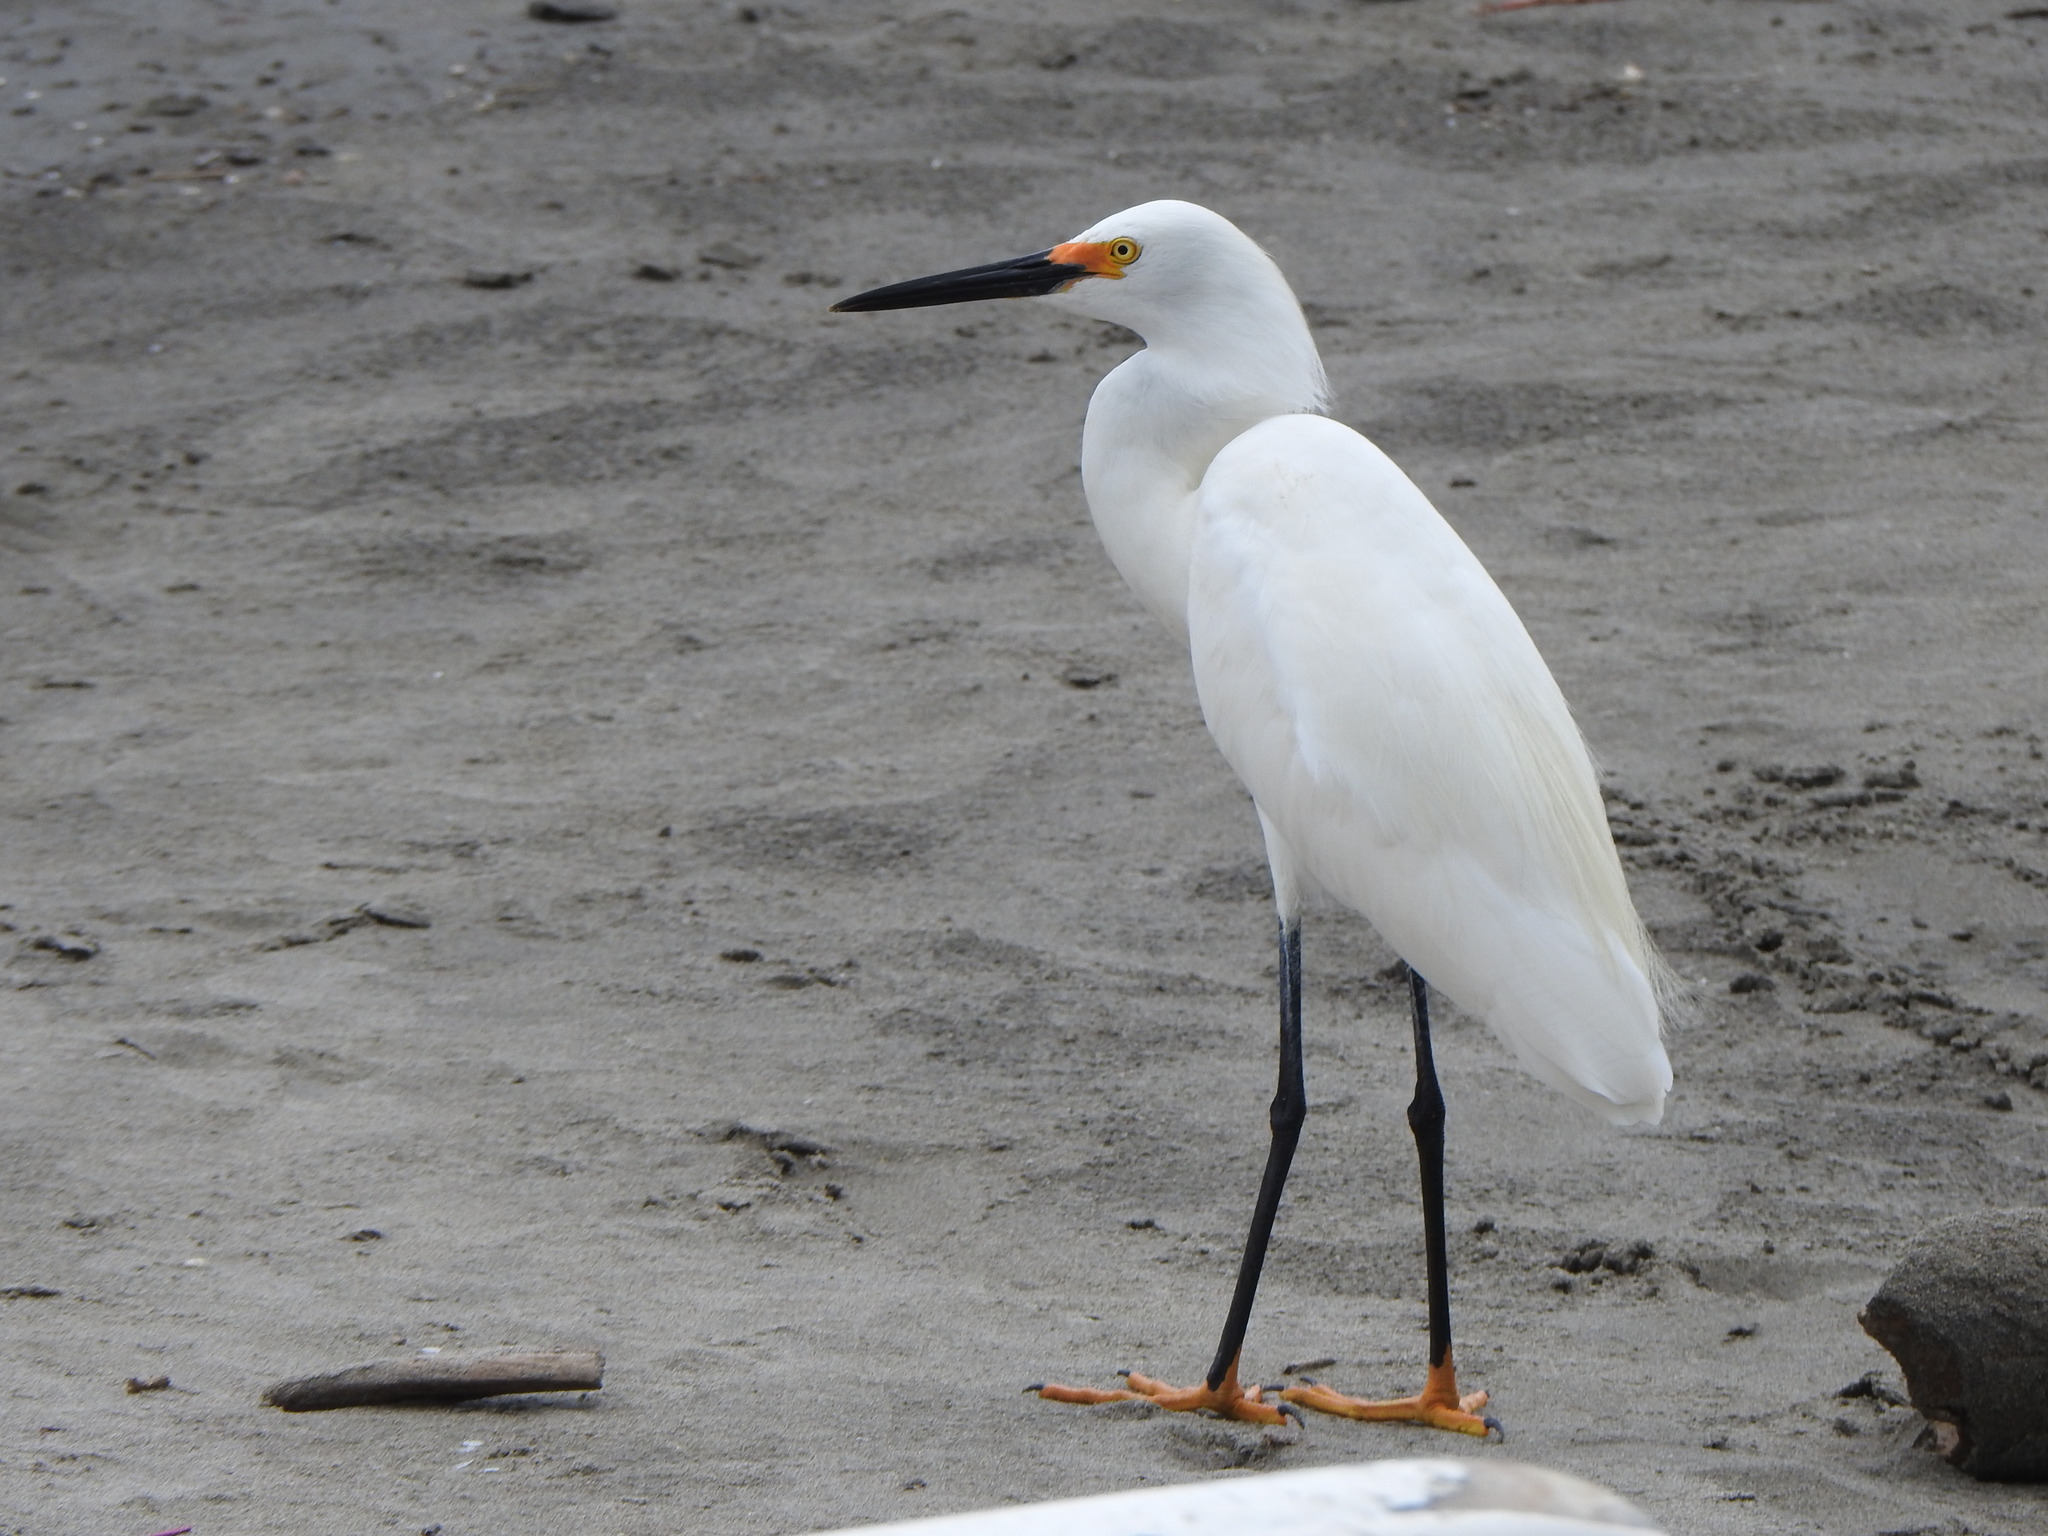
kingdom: Animalia
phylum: Chordata
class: Aves
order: Pelecaniformes
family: Ardeidae
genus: Egretta
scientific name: Egretta thula
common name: Snowy egret
